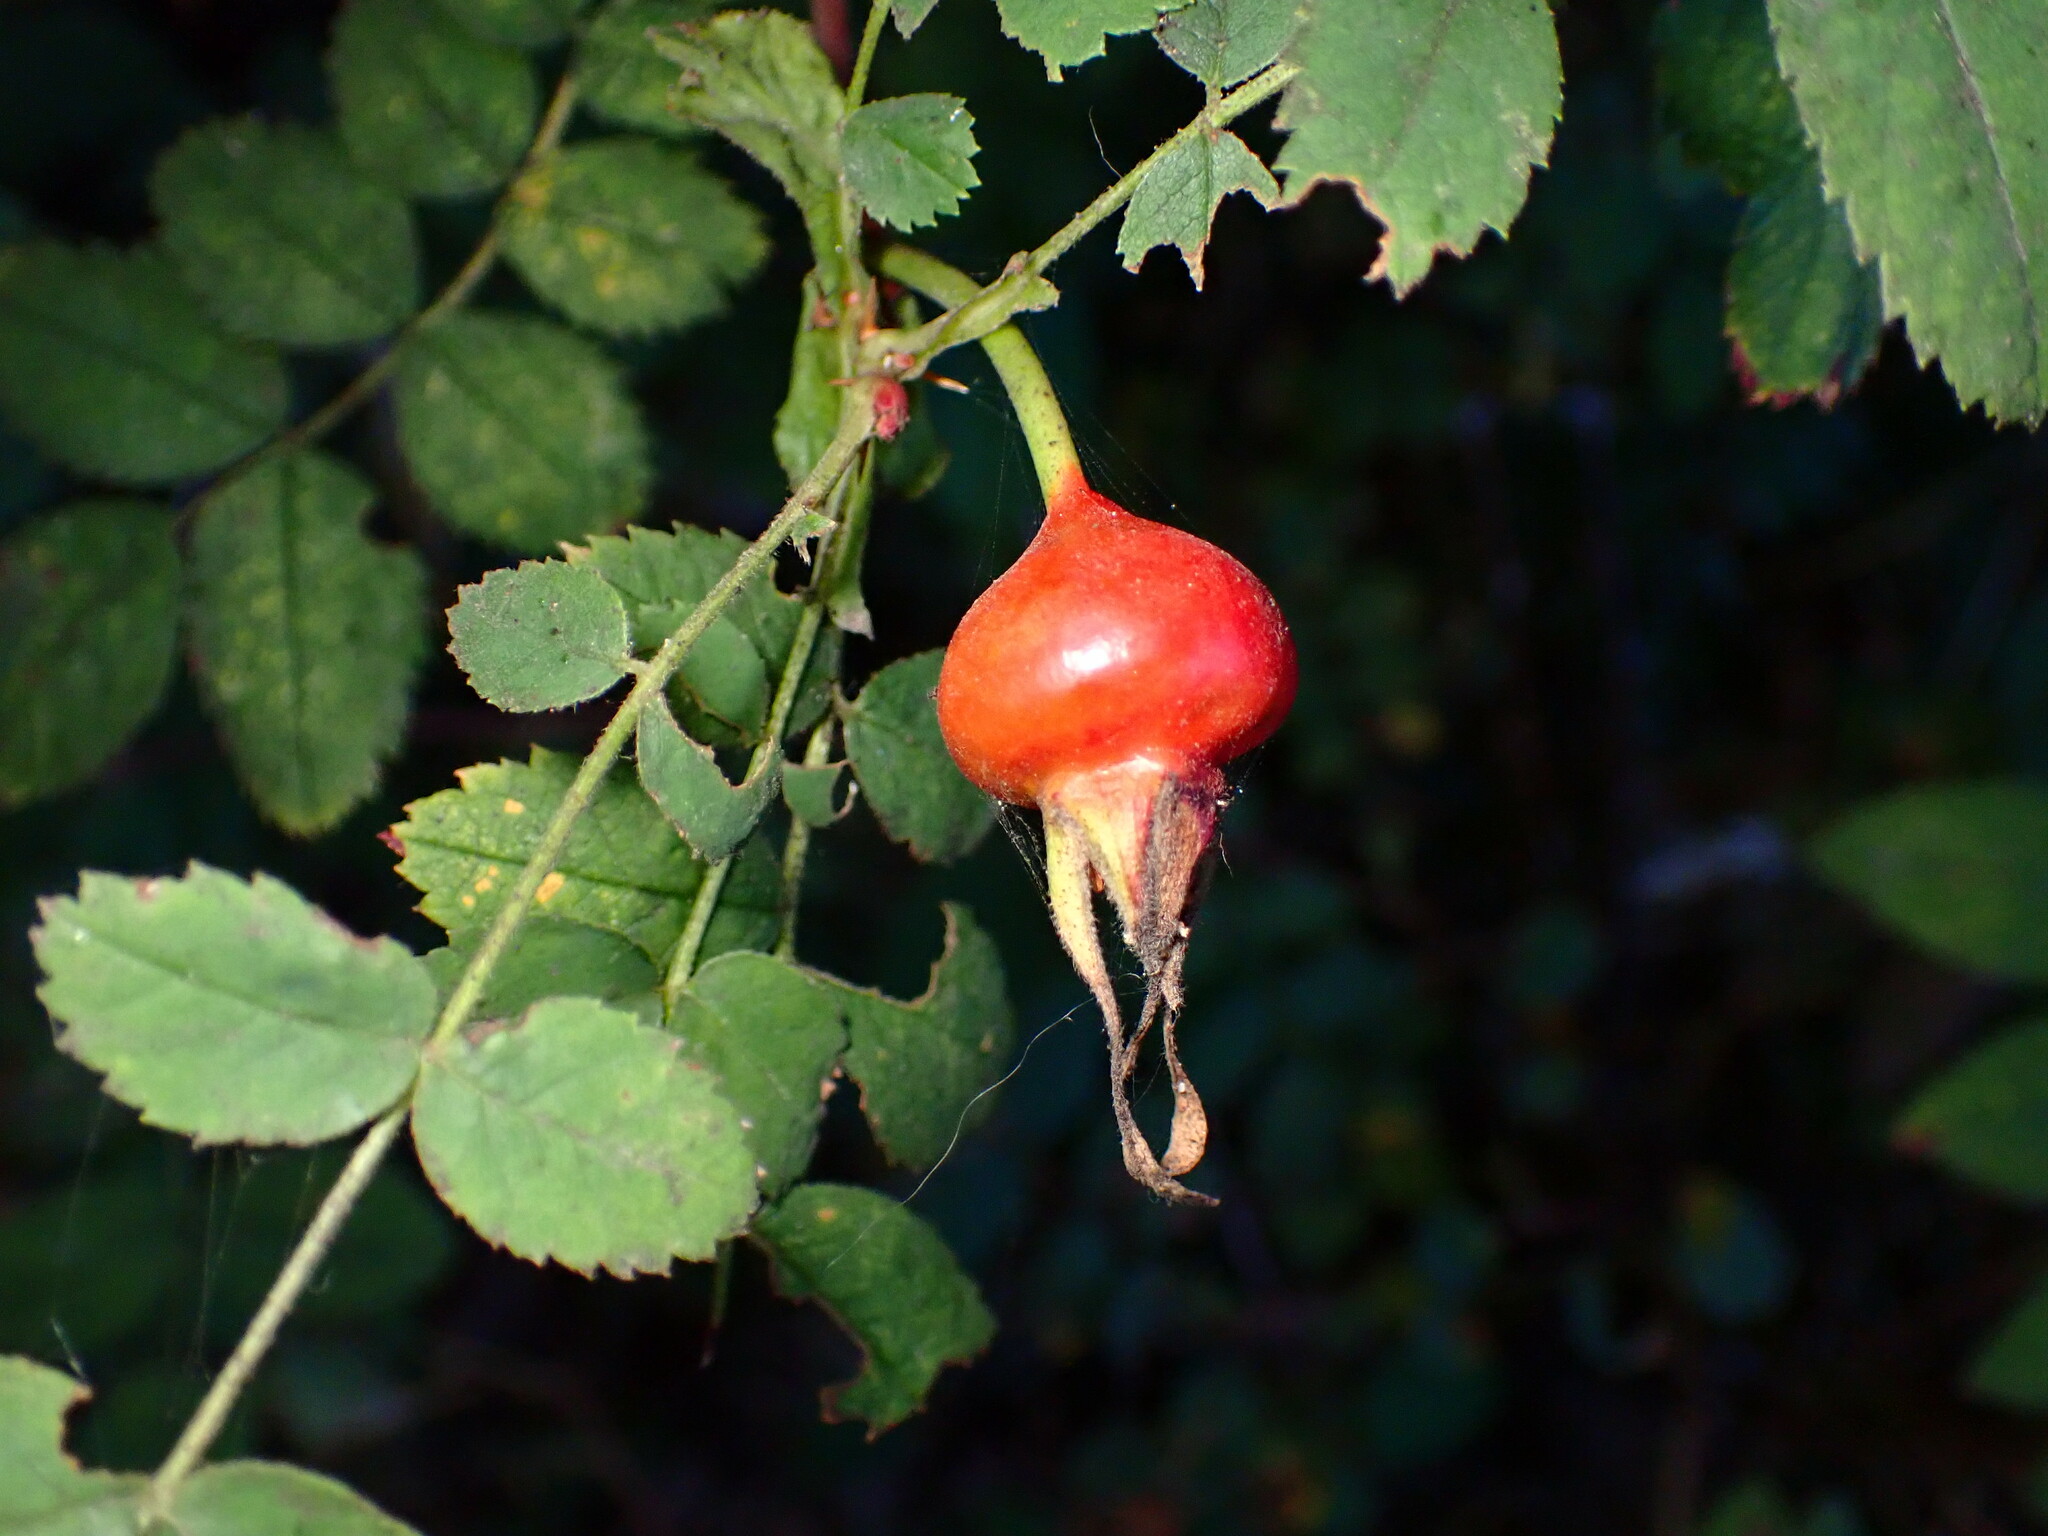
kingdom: Plantae
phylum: Tracheophyta
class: Magnoliopsida
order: Rosales
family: Rosaceae
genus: Rosa
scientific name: Rosa nutkana
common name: Nootka rose
